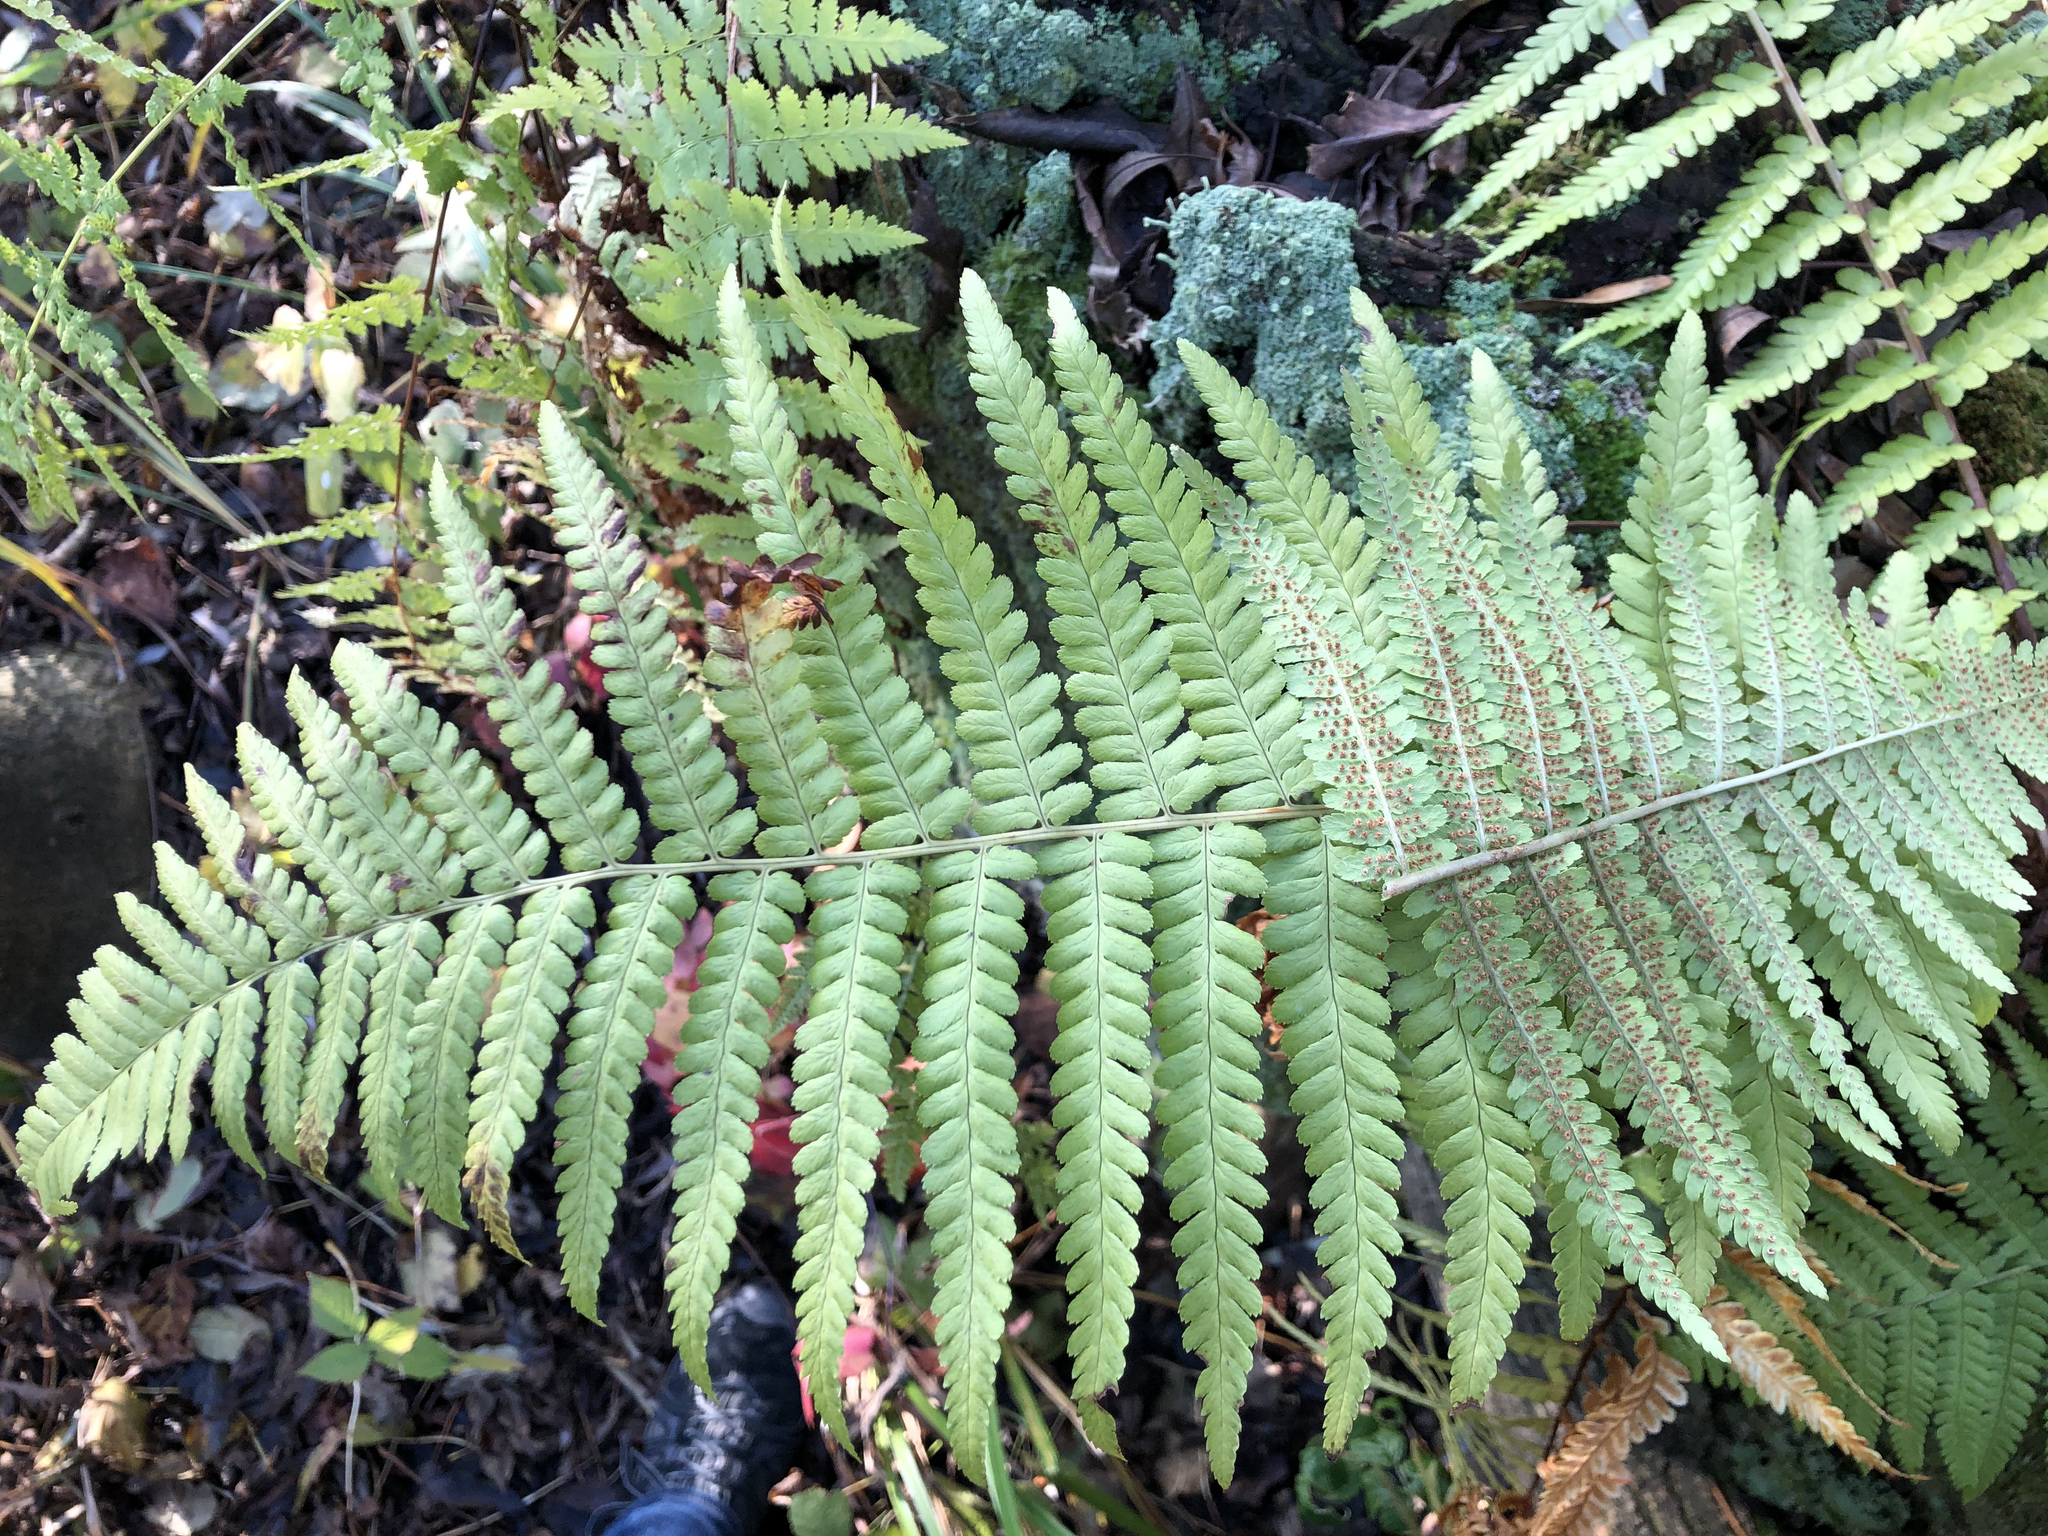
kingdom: Plantae
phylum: Tracheophyta
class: Polypodiopsida
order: Polypodiales
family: Dryopteridaceae
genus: Dryopteris
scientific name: Dryopteris filix-mas
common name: Male fern
